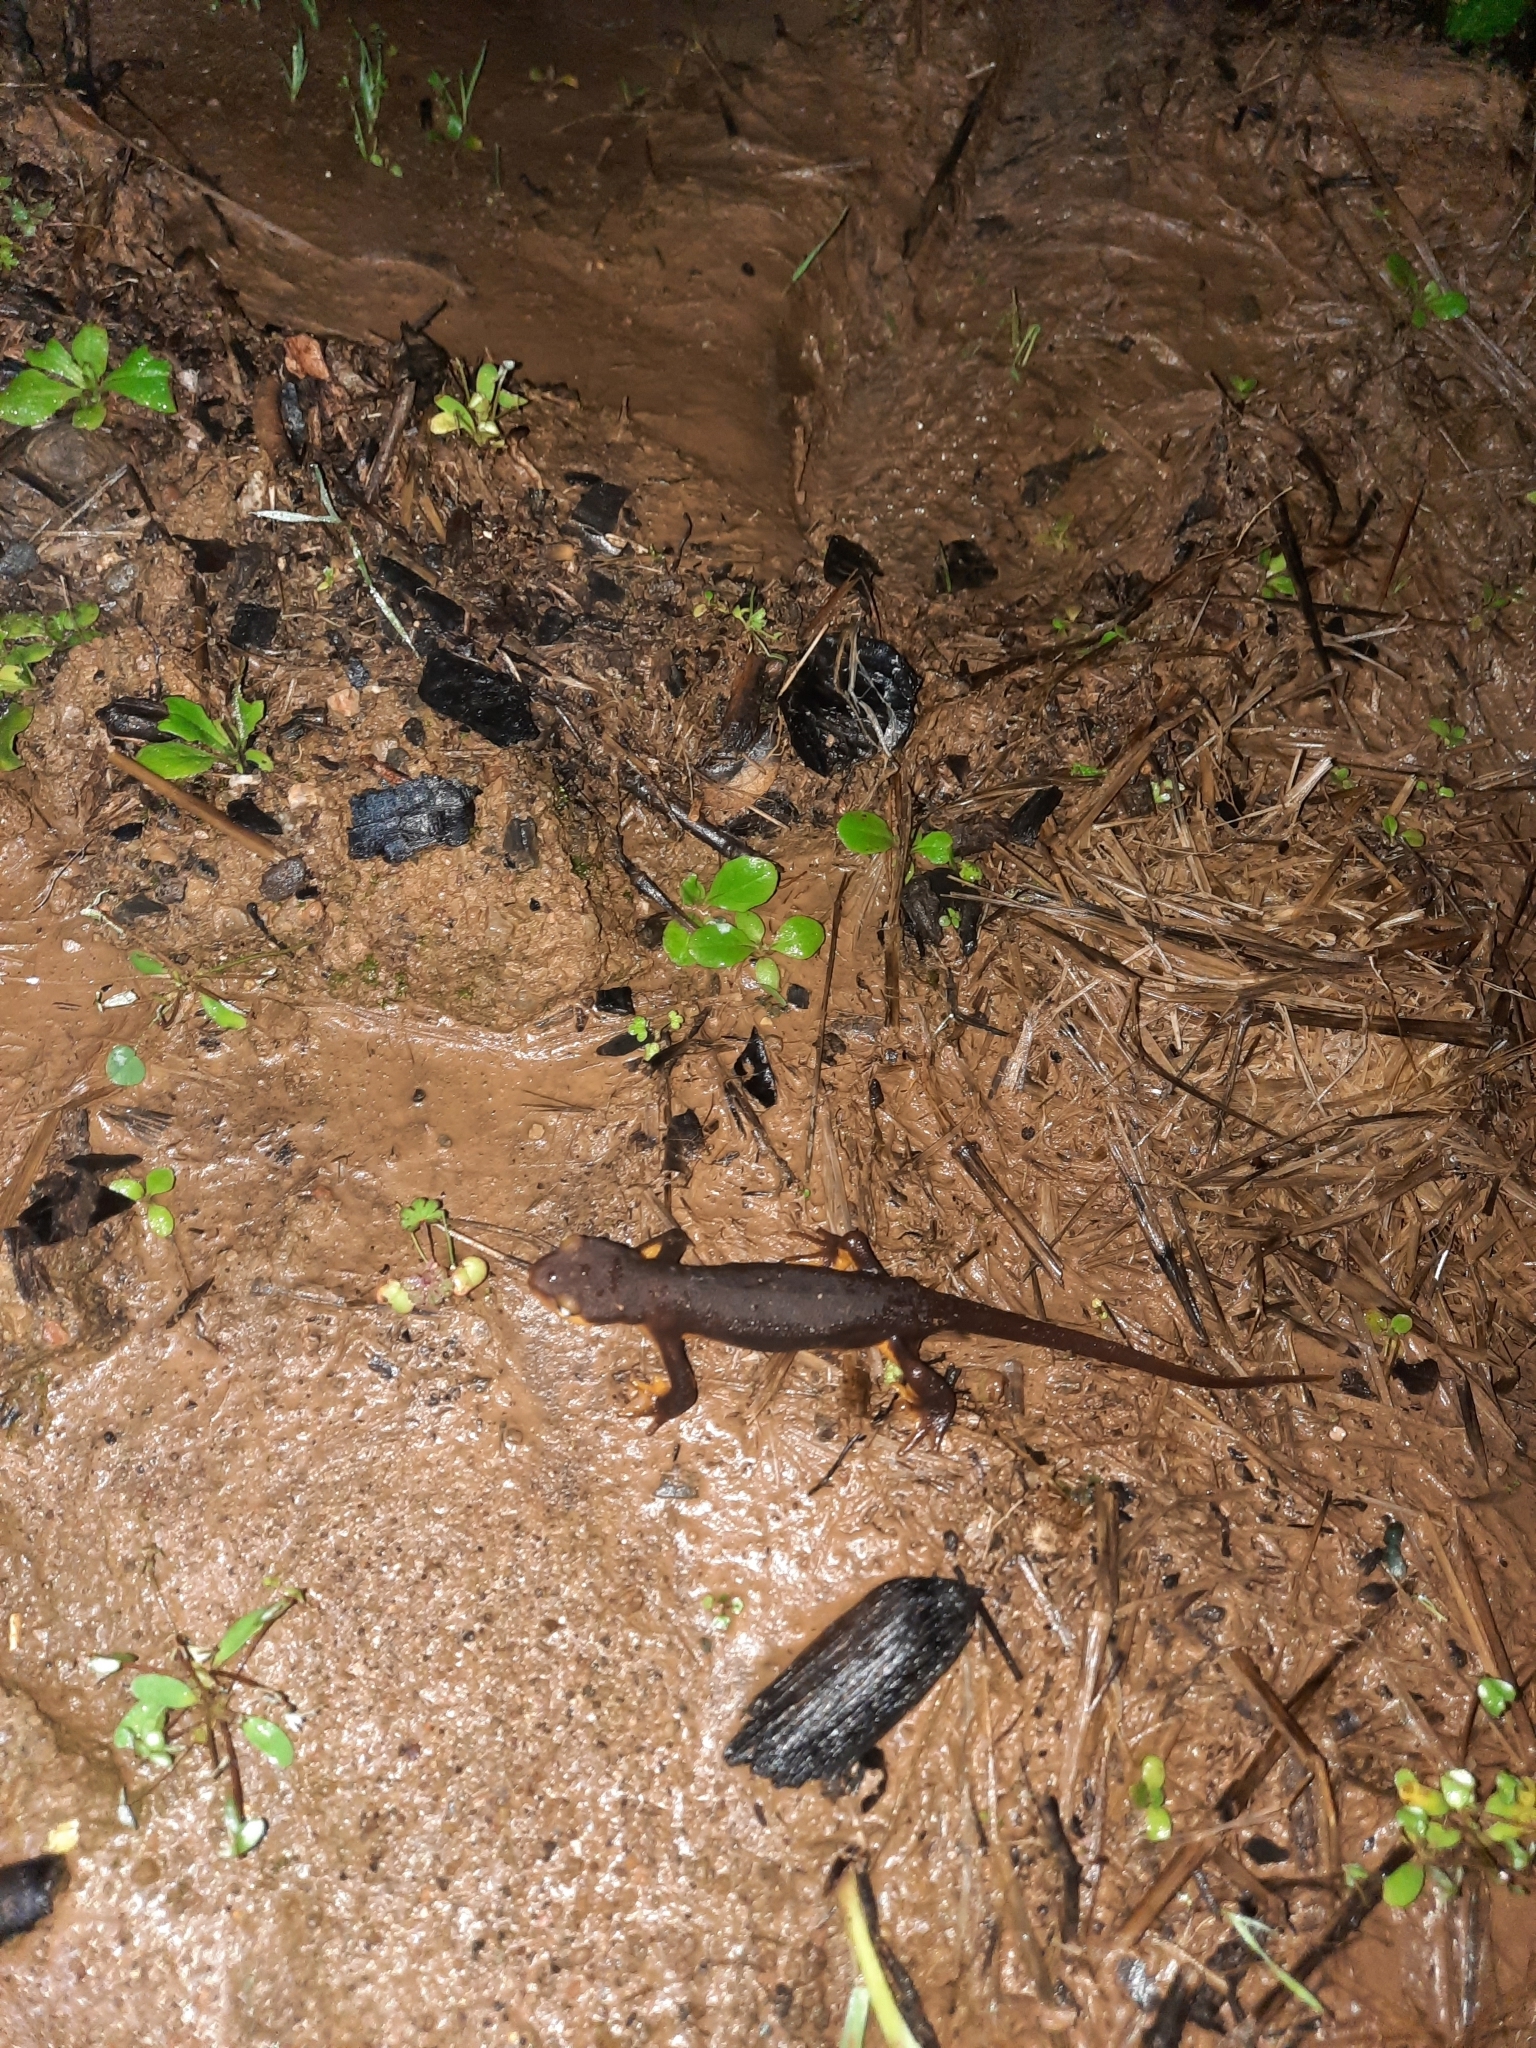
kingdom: Animalia
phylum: Chordata
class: Amphibia
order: Caudata
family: Salamandridae
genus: Taricha
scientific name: Taricha torosa
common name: California newt
